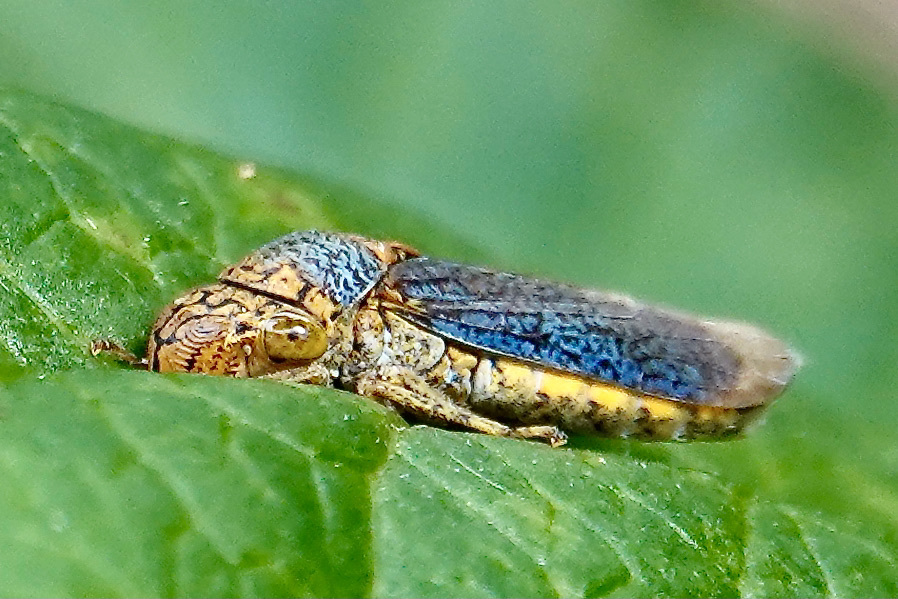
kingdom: Animalia
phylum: Arthropoda
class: Insecta
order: Hemiptera
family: Cicadellidae
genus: Oncometopia
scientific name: Oncometopia orbona
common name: Broad-headed sharpshooter
